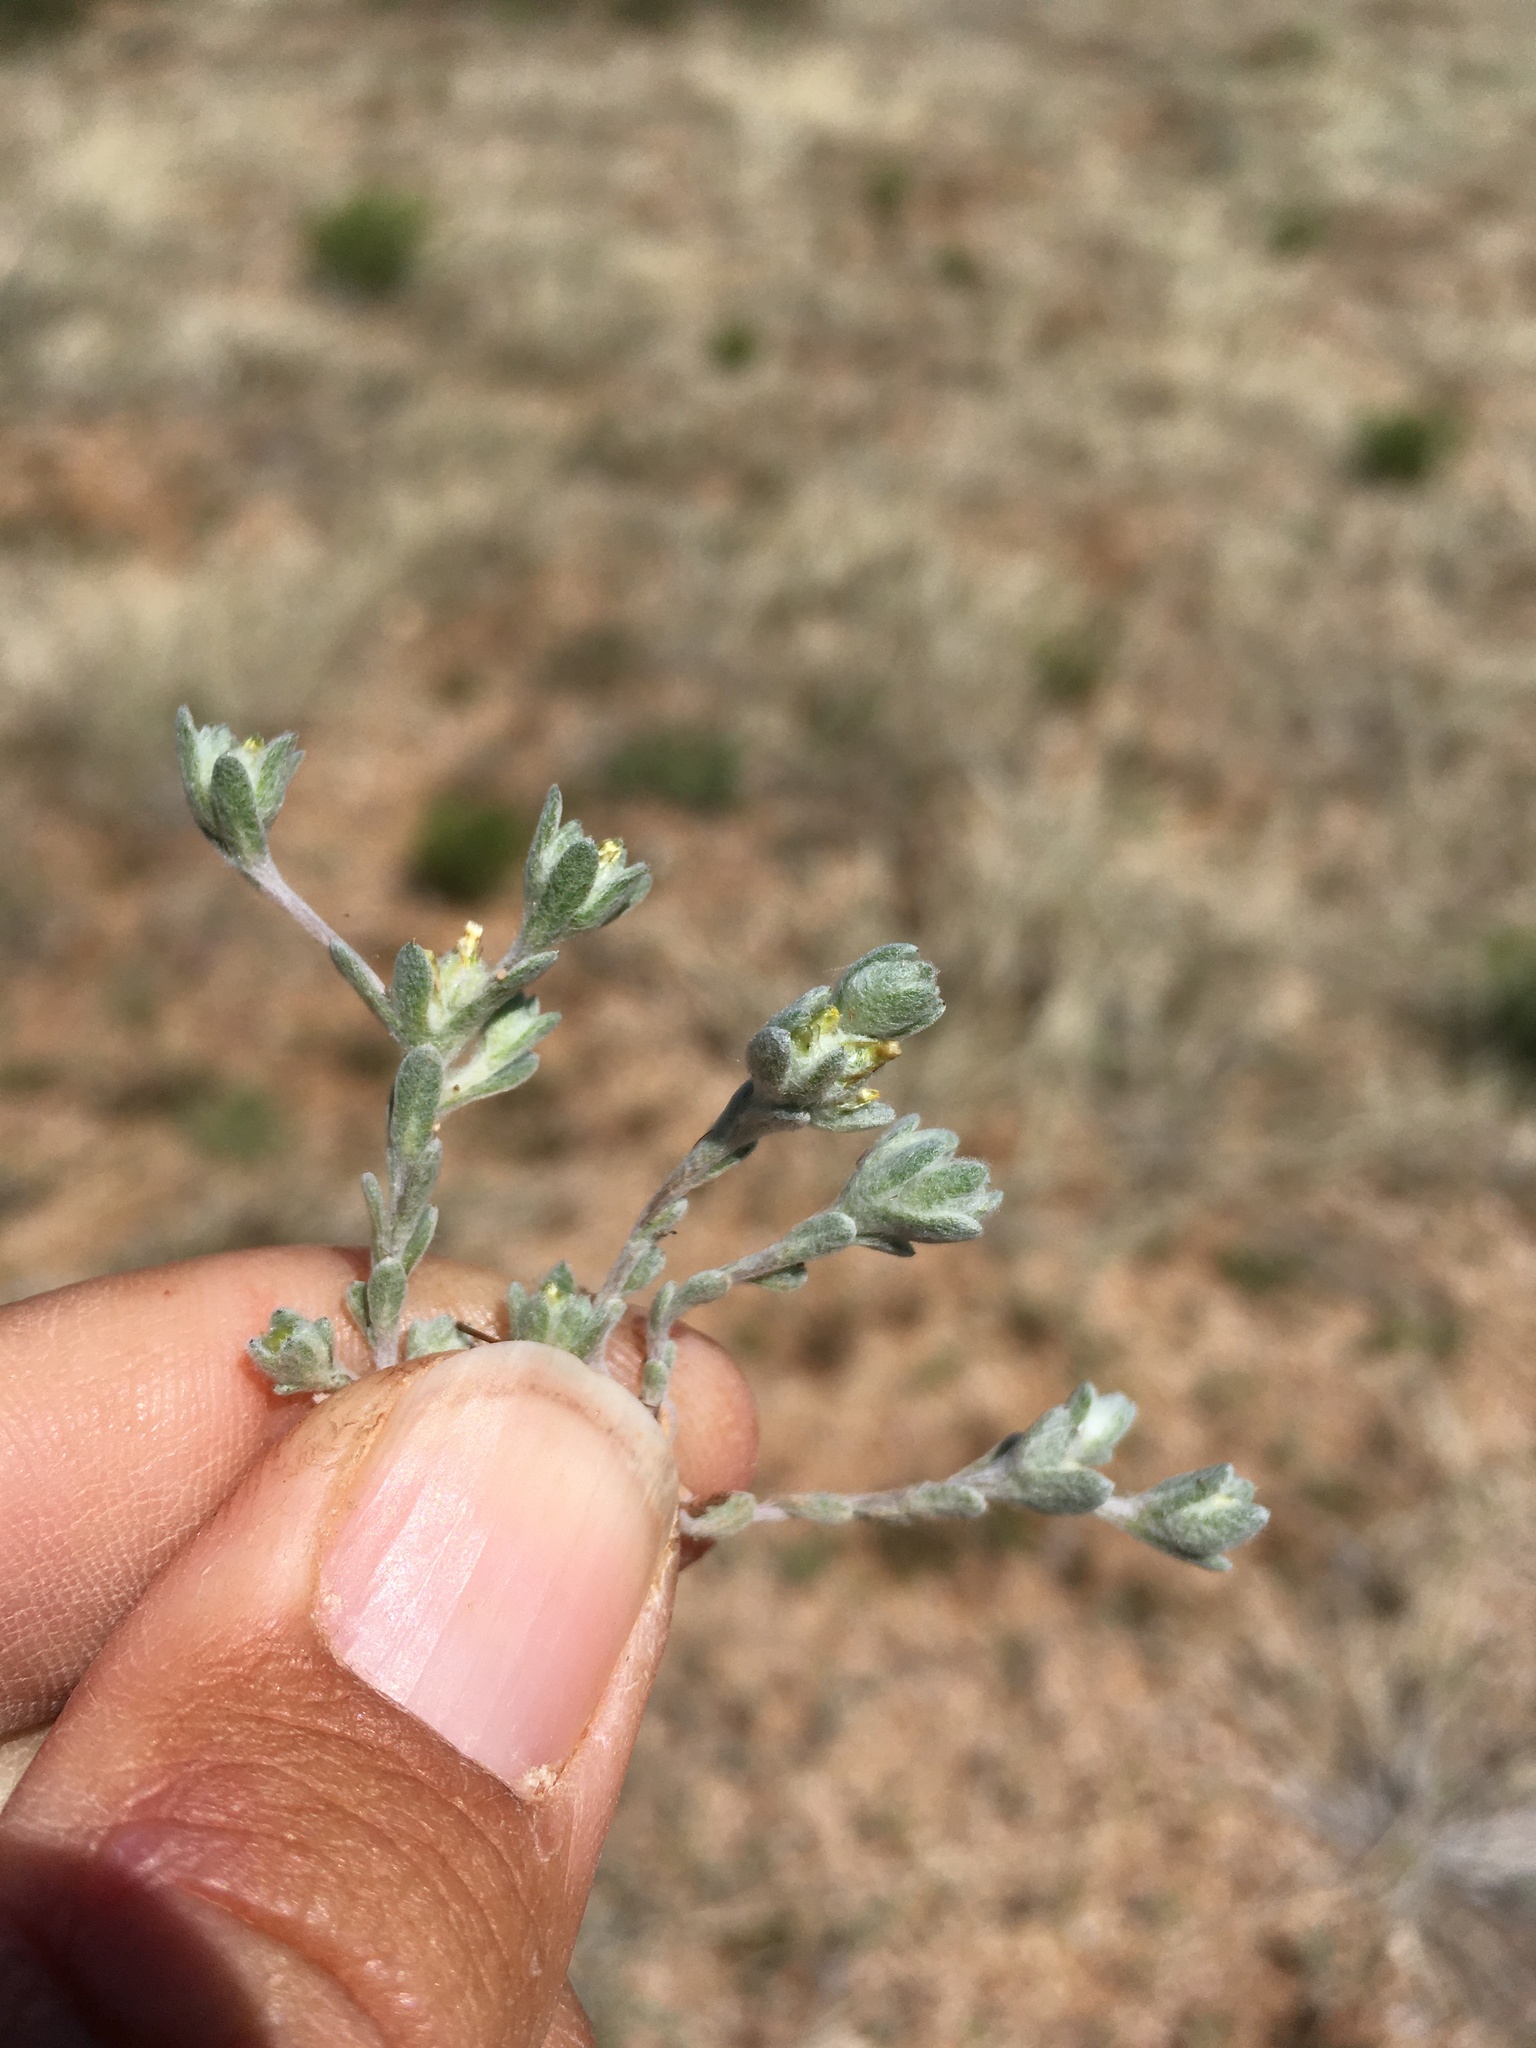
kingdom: Plantae
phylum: Tracheophyta
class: Magnoliopsida
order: Asterales
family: Asteraceae
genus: Logfia
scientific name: Logfia depressa
